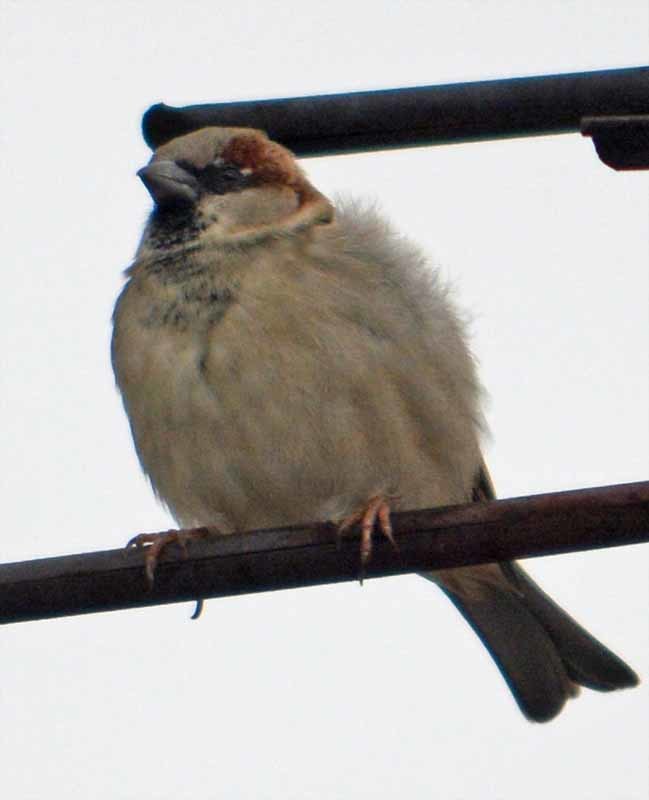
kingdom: Animalia
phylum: Chordata
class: Aves
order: Passeriformes
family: Passeridae
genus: Passer
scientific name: Passer domesticus
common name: House sparrow
